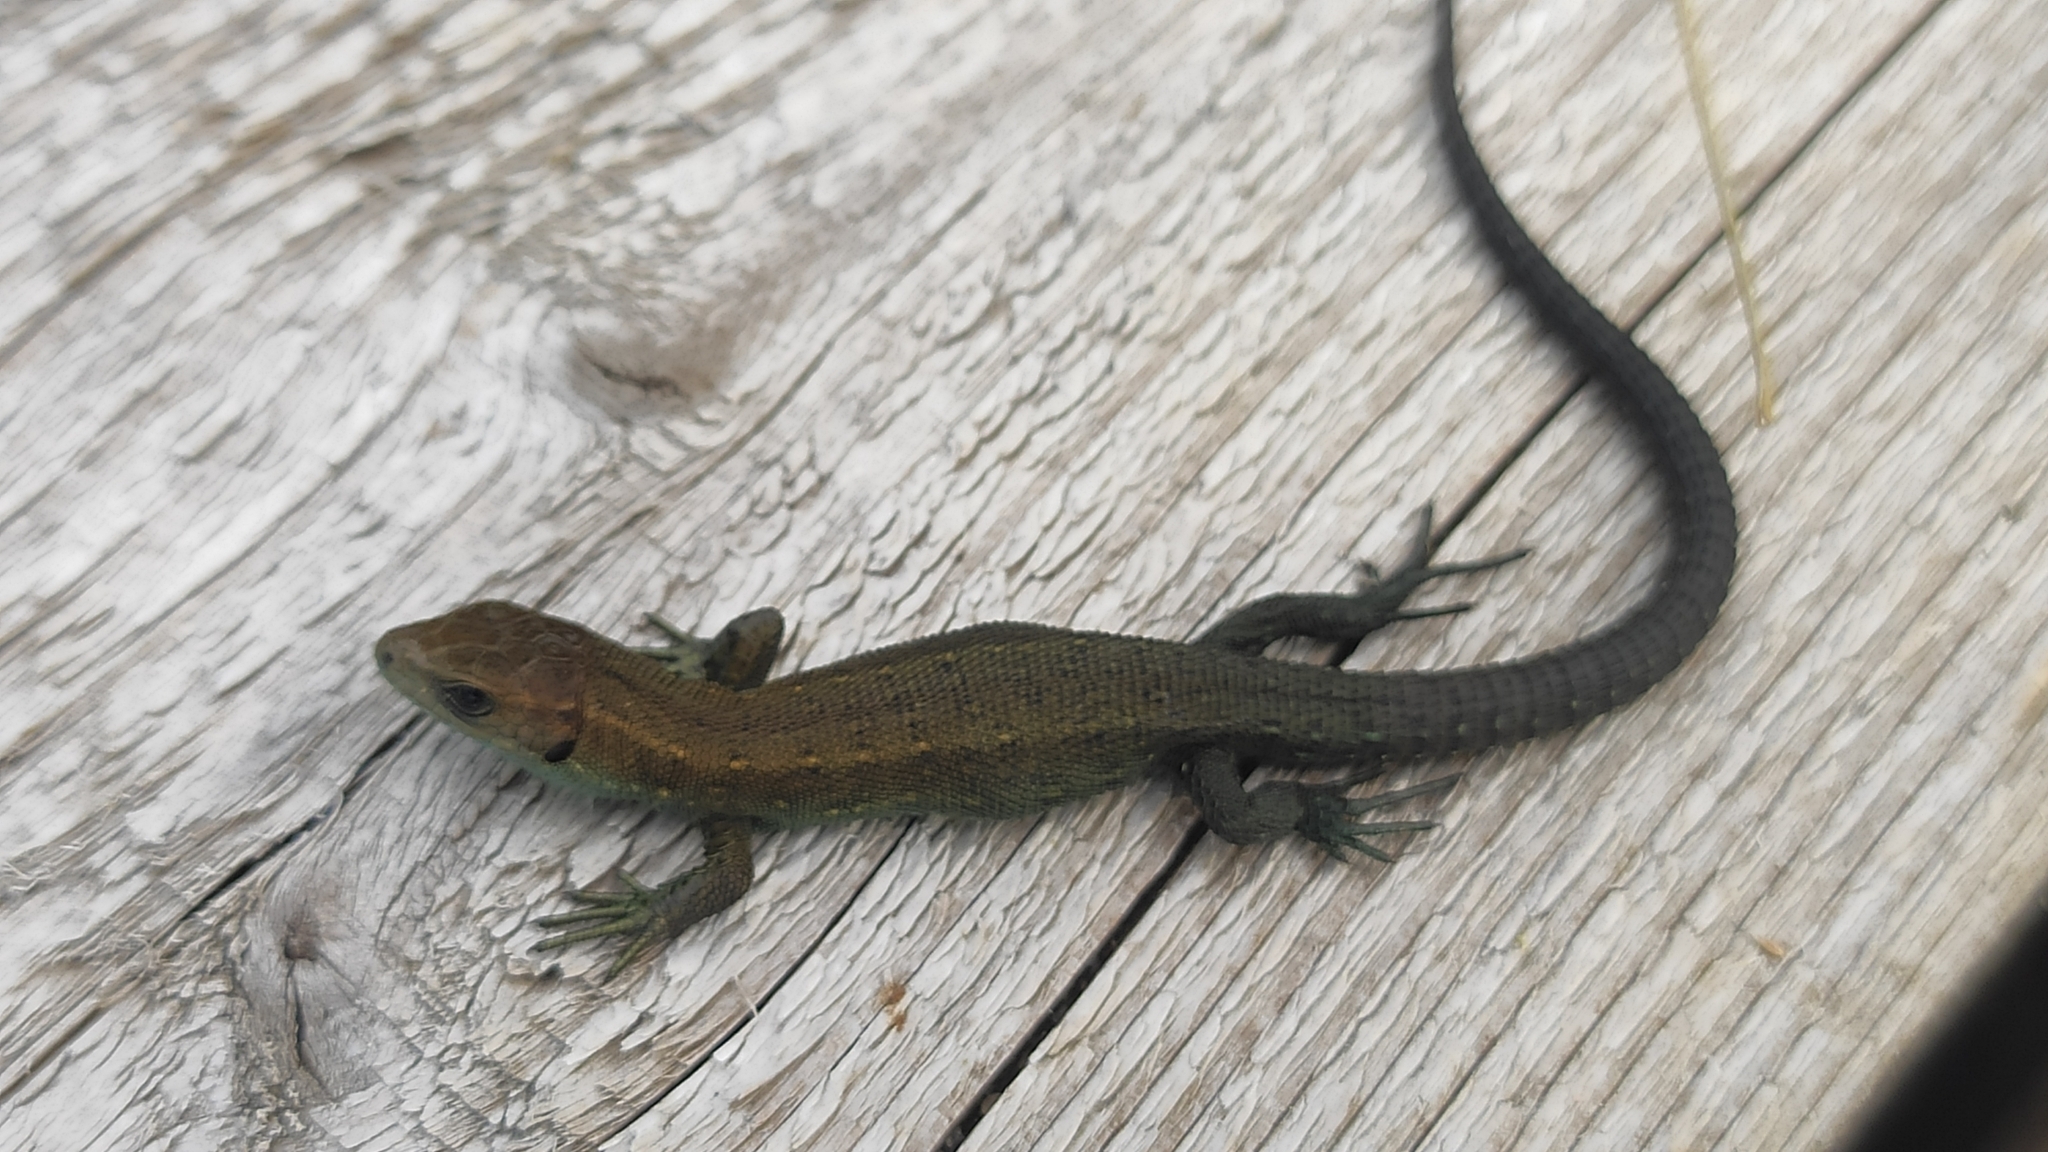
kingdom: Animalia
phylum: Chordata
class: Squamata
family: Lacertidae
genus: Zootoca
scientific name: Zootoca vivipara
